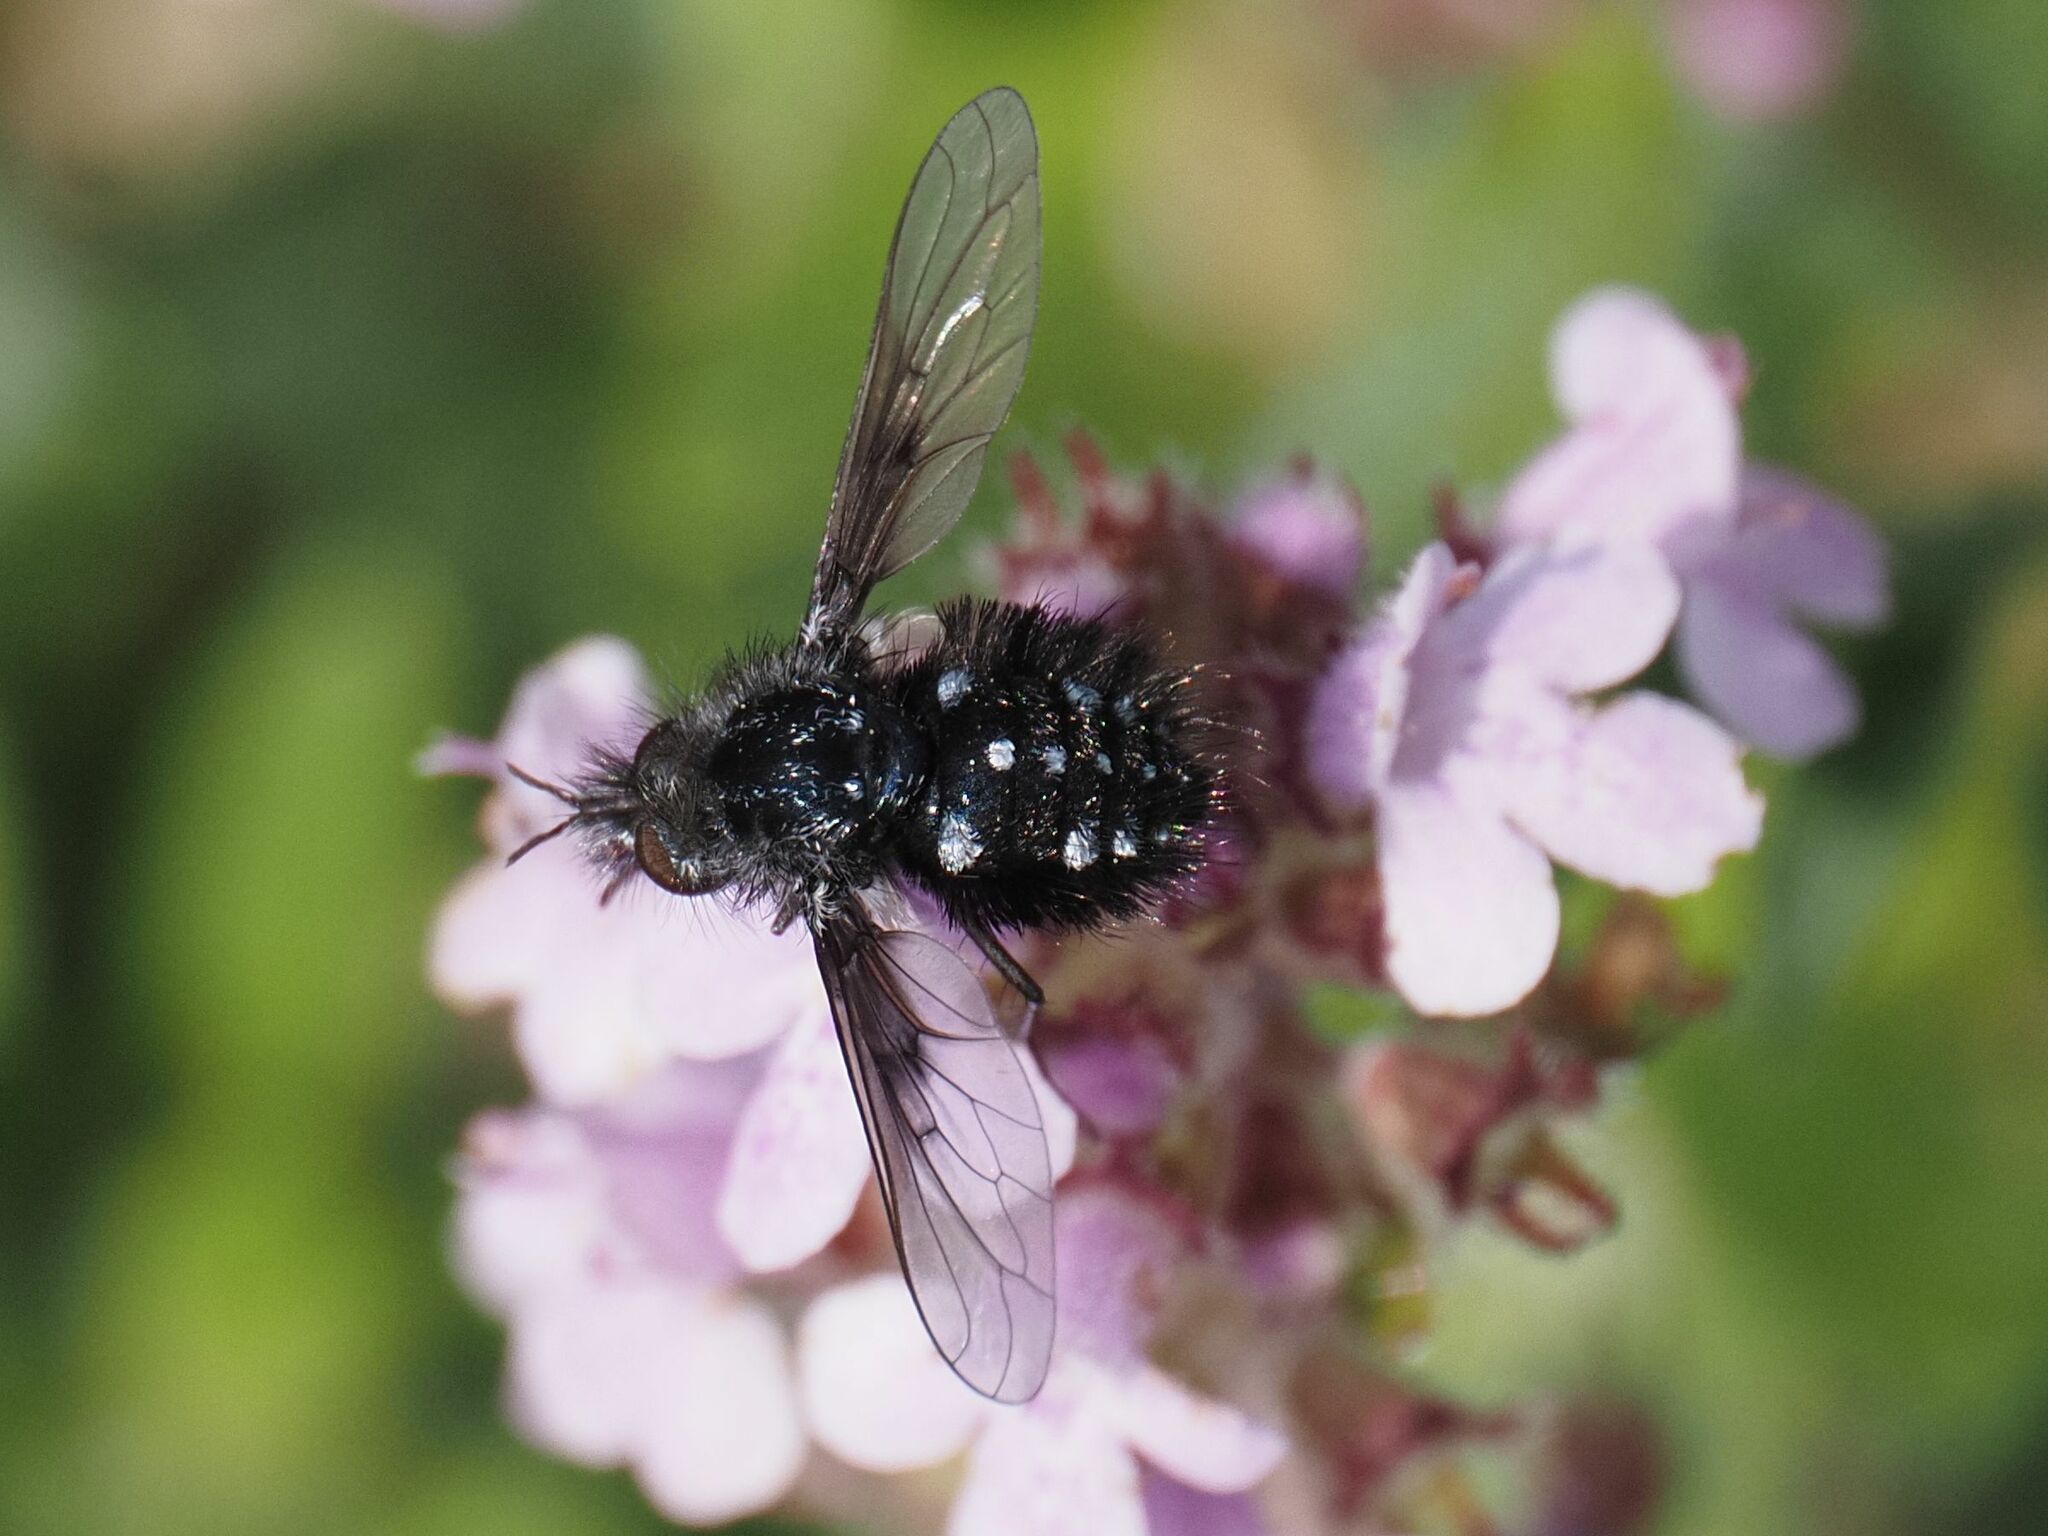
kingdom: Animalia
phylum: Arthropoda
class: Insecta
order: Diptera
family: Bombyliidae
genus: Bombylella
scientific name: Bombylella atra
